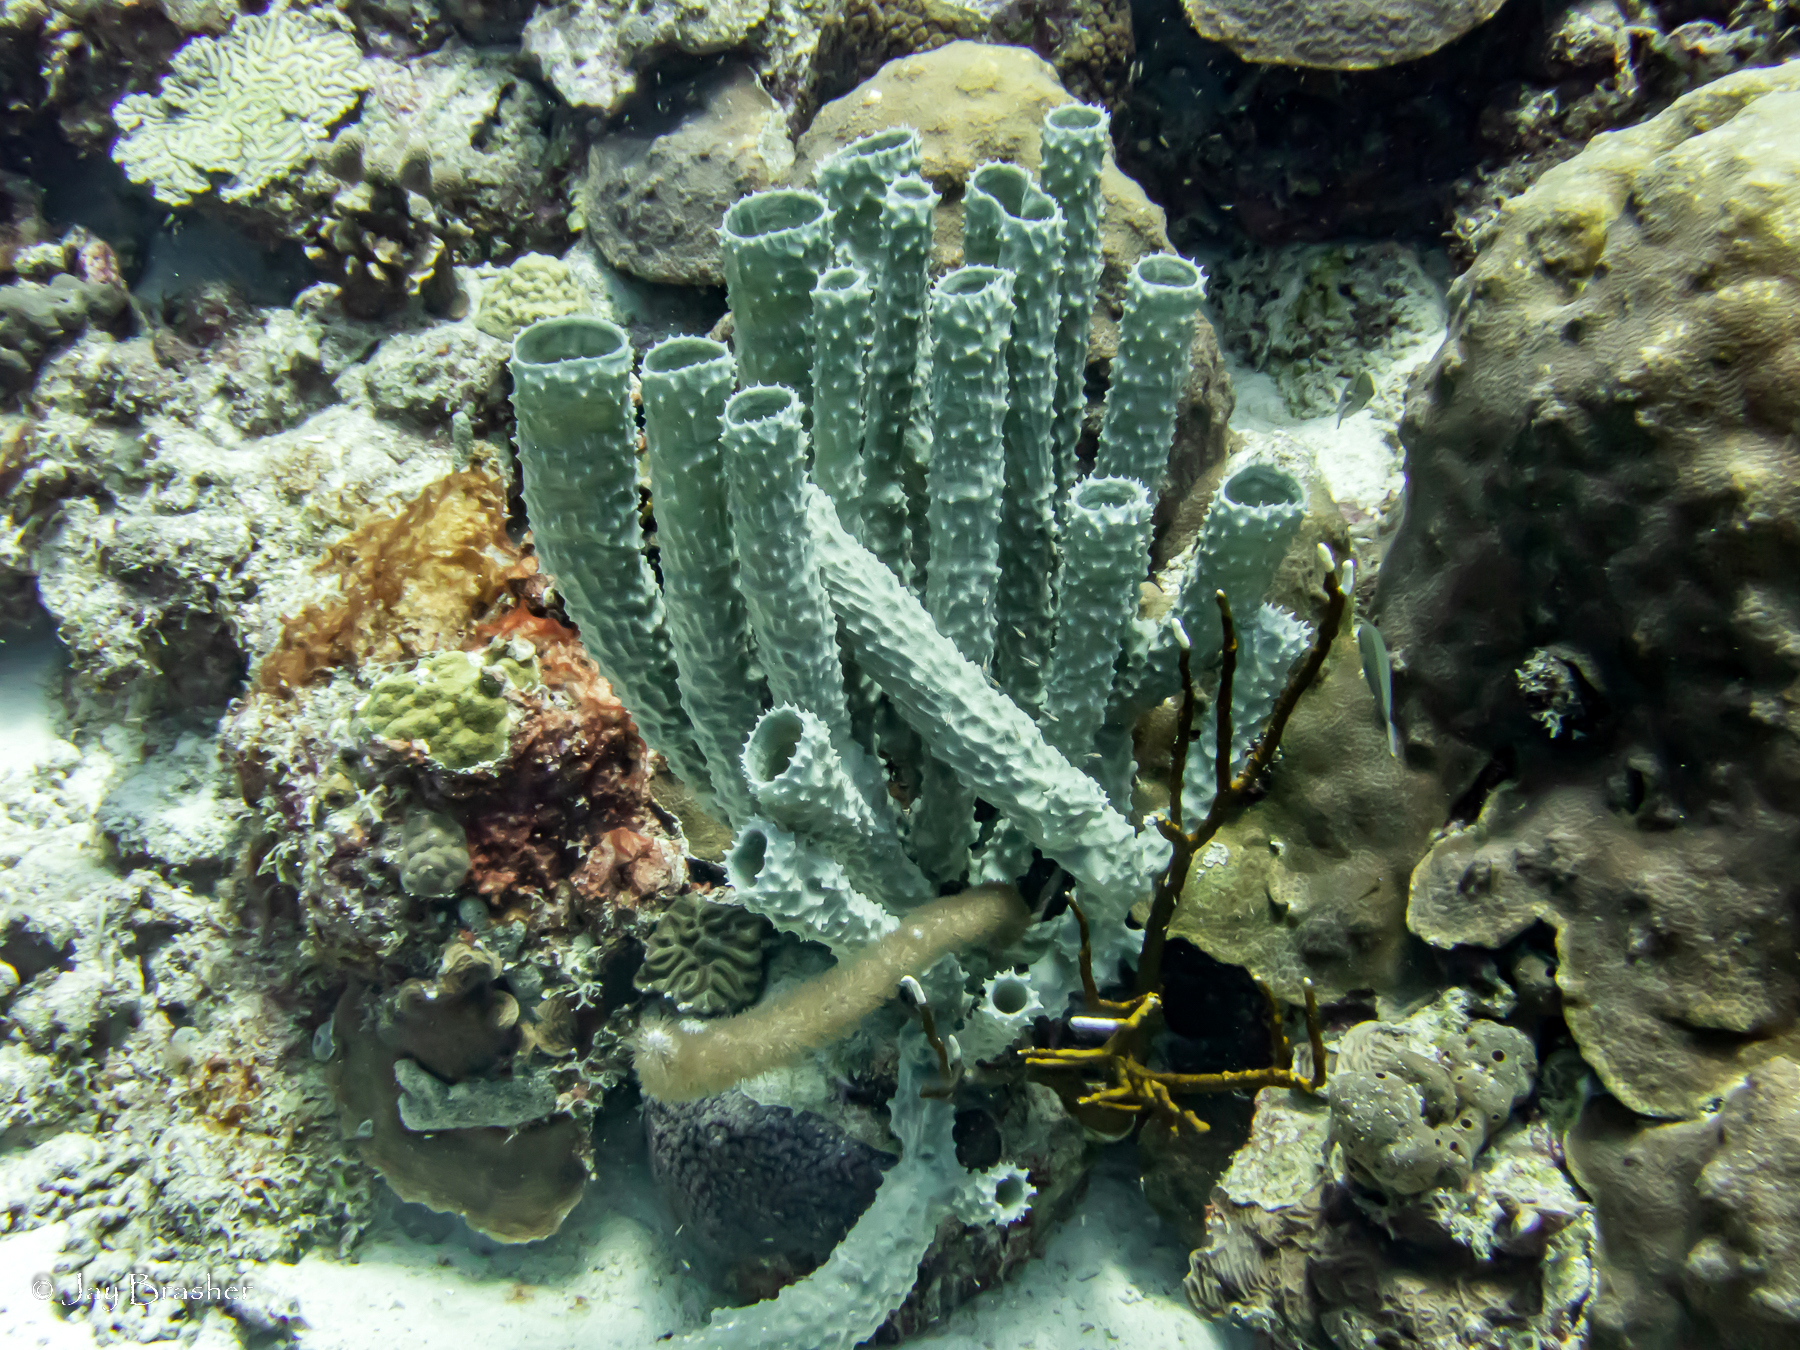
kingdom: Animalia
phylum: Porifera
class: Demospongiae
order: Haplosclerida
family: Callyspongiidae
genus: Callyspongia
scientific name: Callyspongia aculeata
